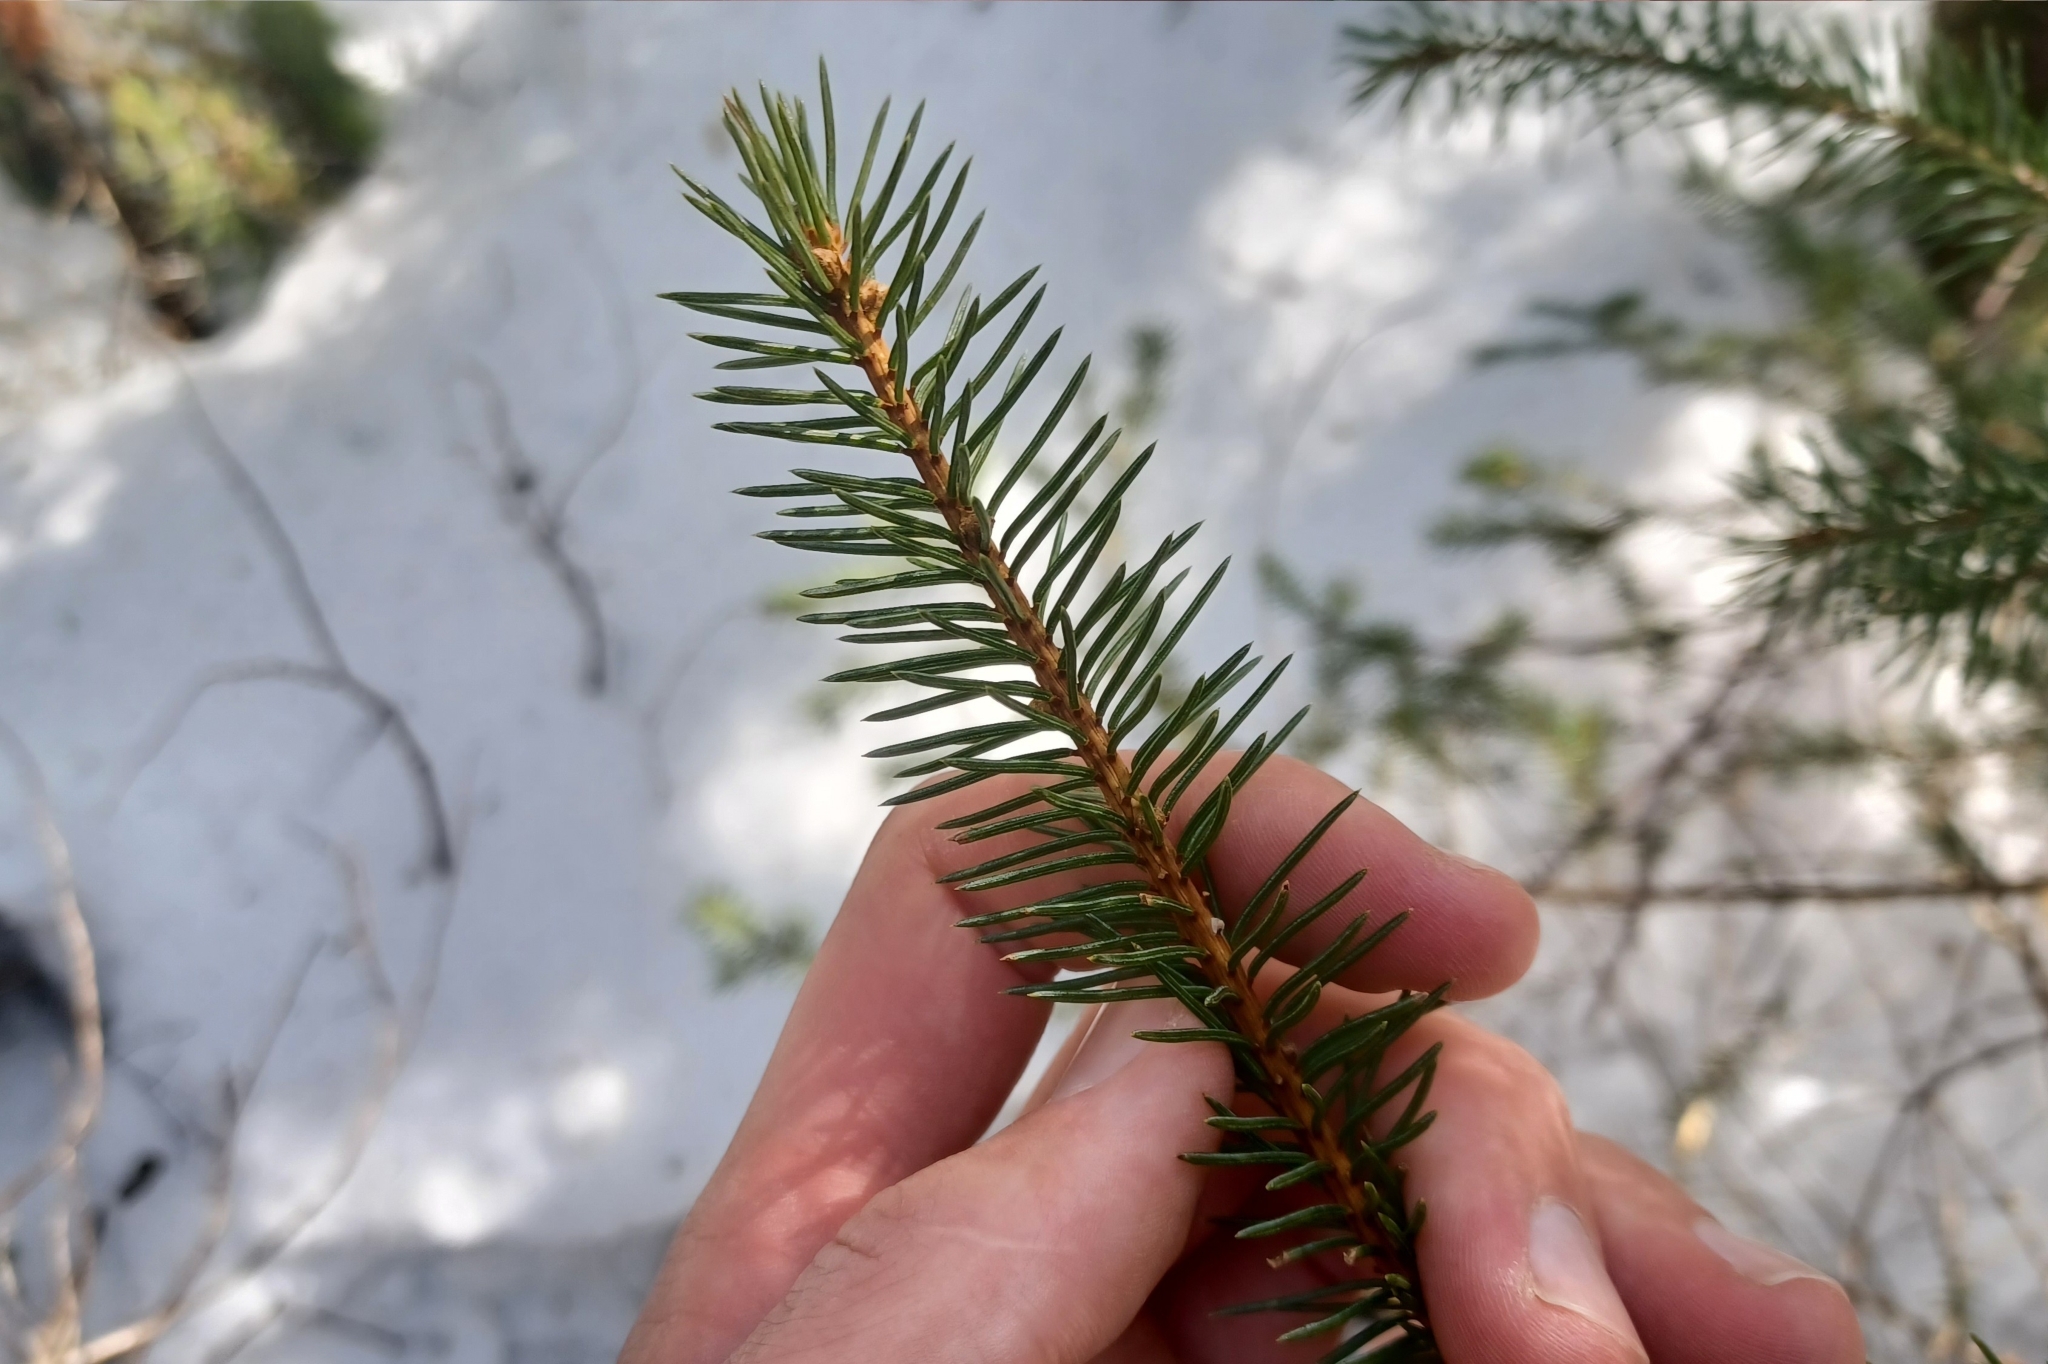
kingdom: Plantae
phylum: Tracheophyta
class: Pinopsida
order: Pinales
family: Pinaceae
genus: Picea
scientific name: Picea glauca
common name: White spruce
